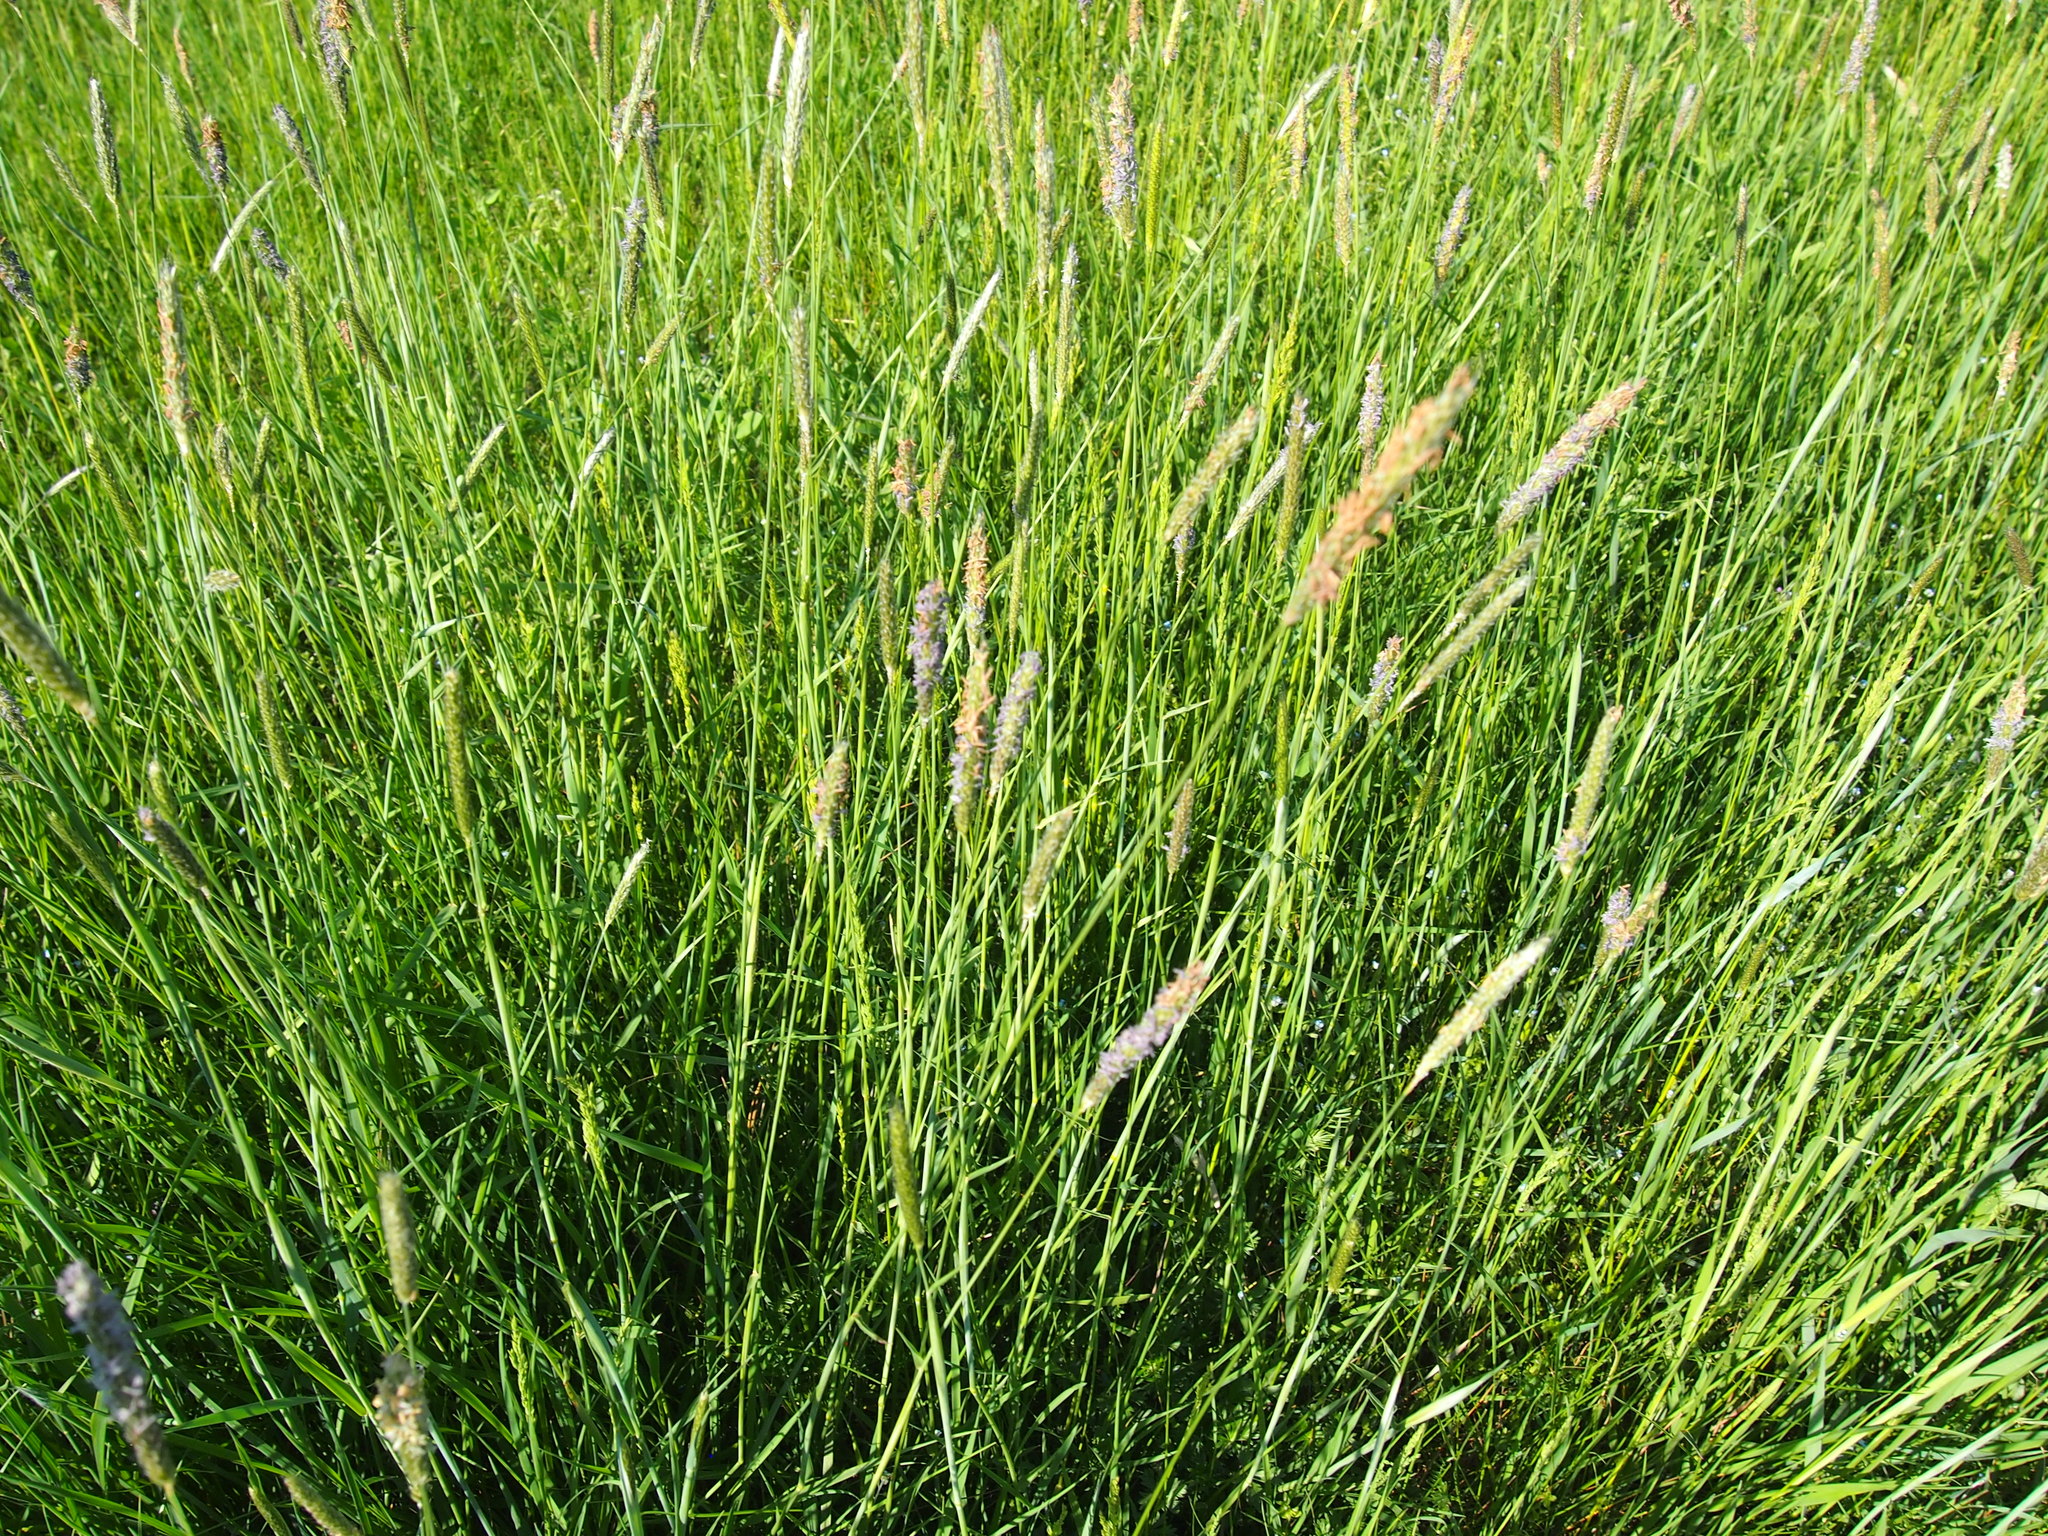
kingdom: Plantae
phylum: Tracheophyta
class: Liliopsida
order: Poales
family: Poaceae
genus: Alopecurus
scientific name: Alopecurus pratensis
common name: Meadow foxtail
